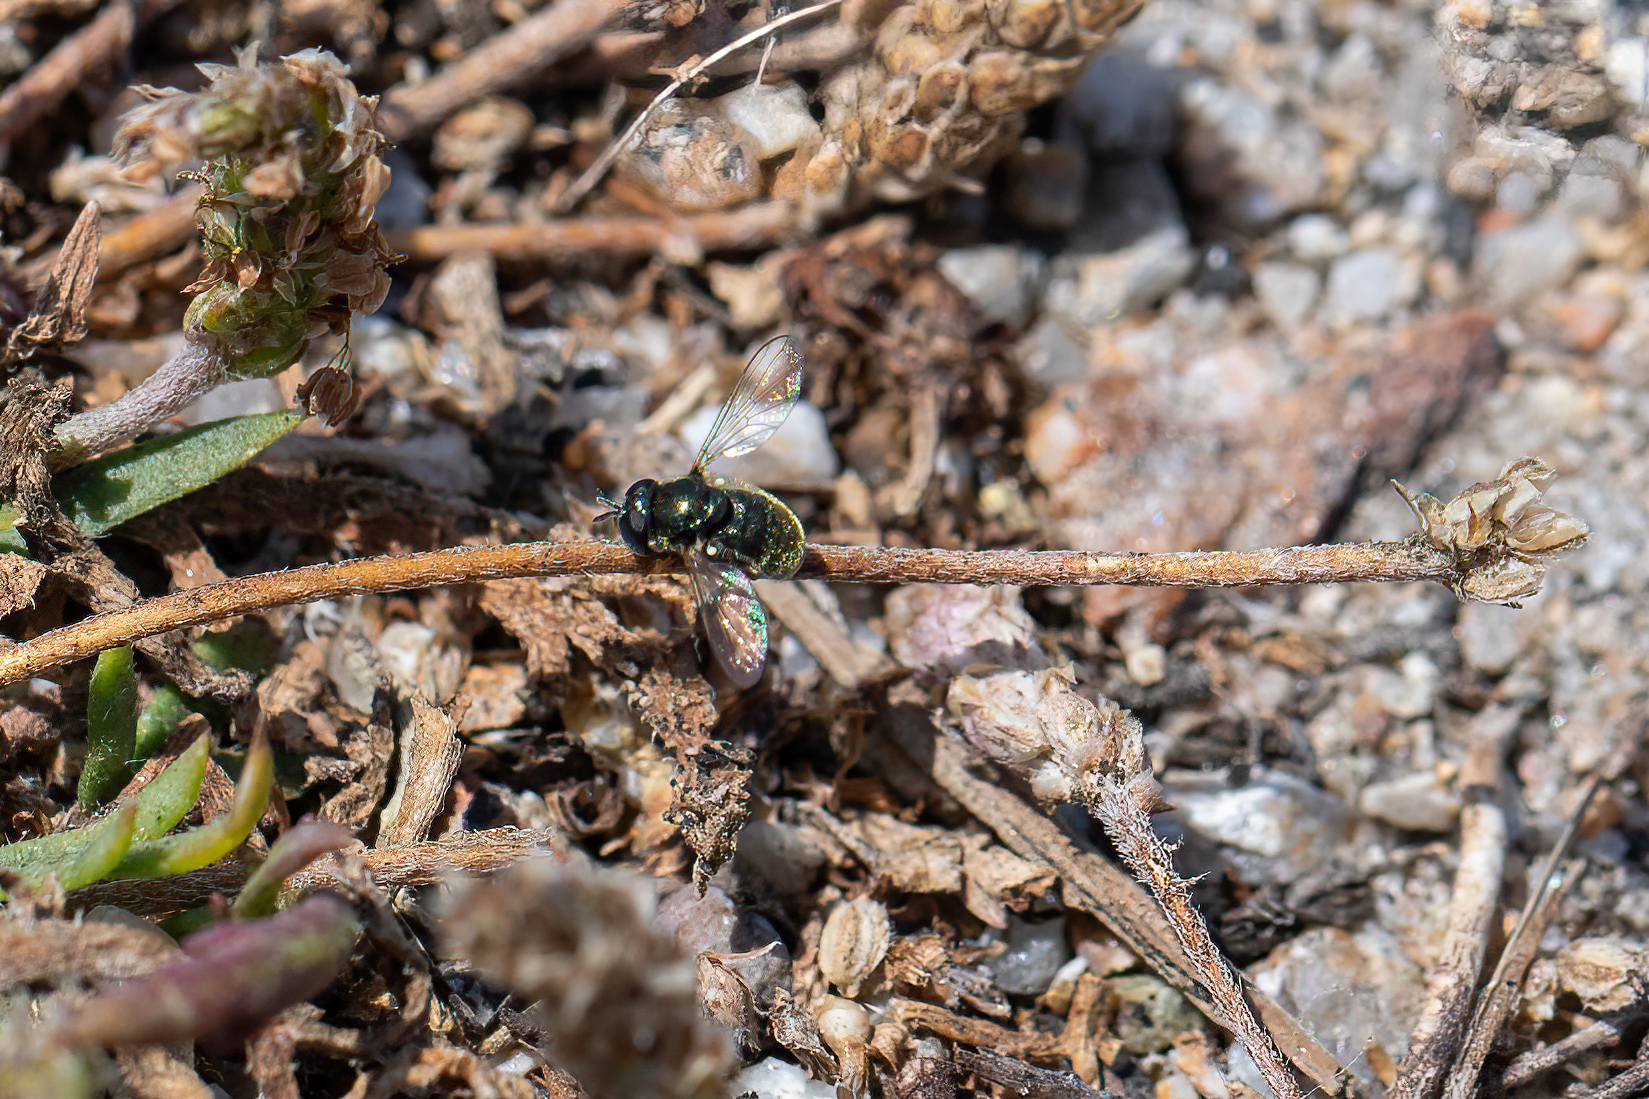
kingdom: Animalia
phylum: Arthropoda
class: Insecta
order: Diptera
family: Syrphidae
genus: Paragus
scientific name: Paragus haemorrhous
